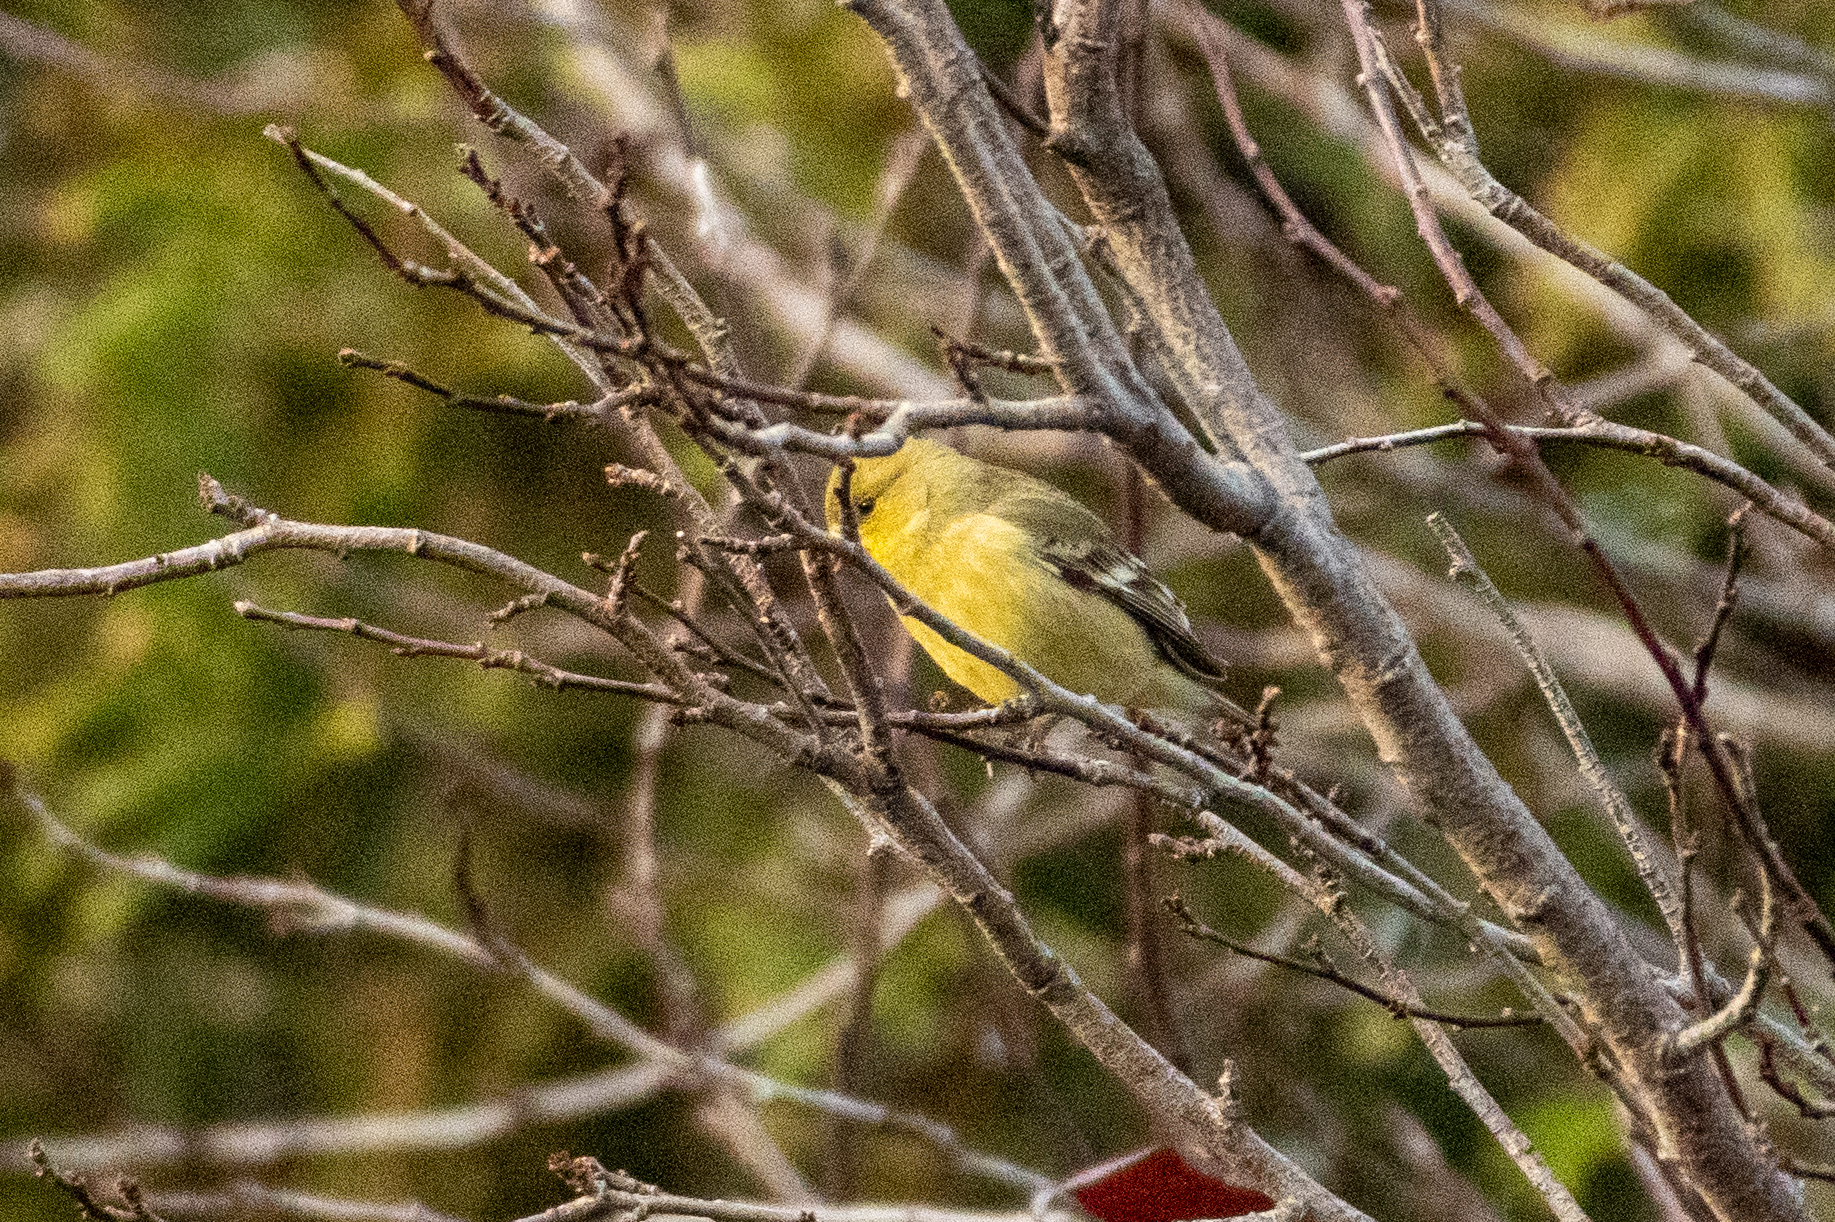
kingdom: Animalia
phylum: Chordata
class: Aves
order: Passeriformes
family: Fringillidae
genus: Spinus
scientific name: Spinus psaltria
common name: Lesser goldfinch
